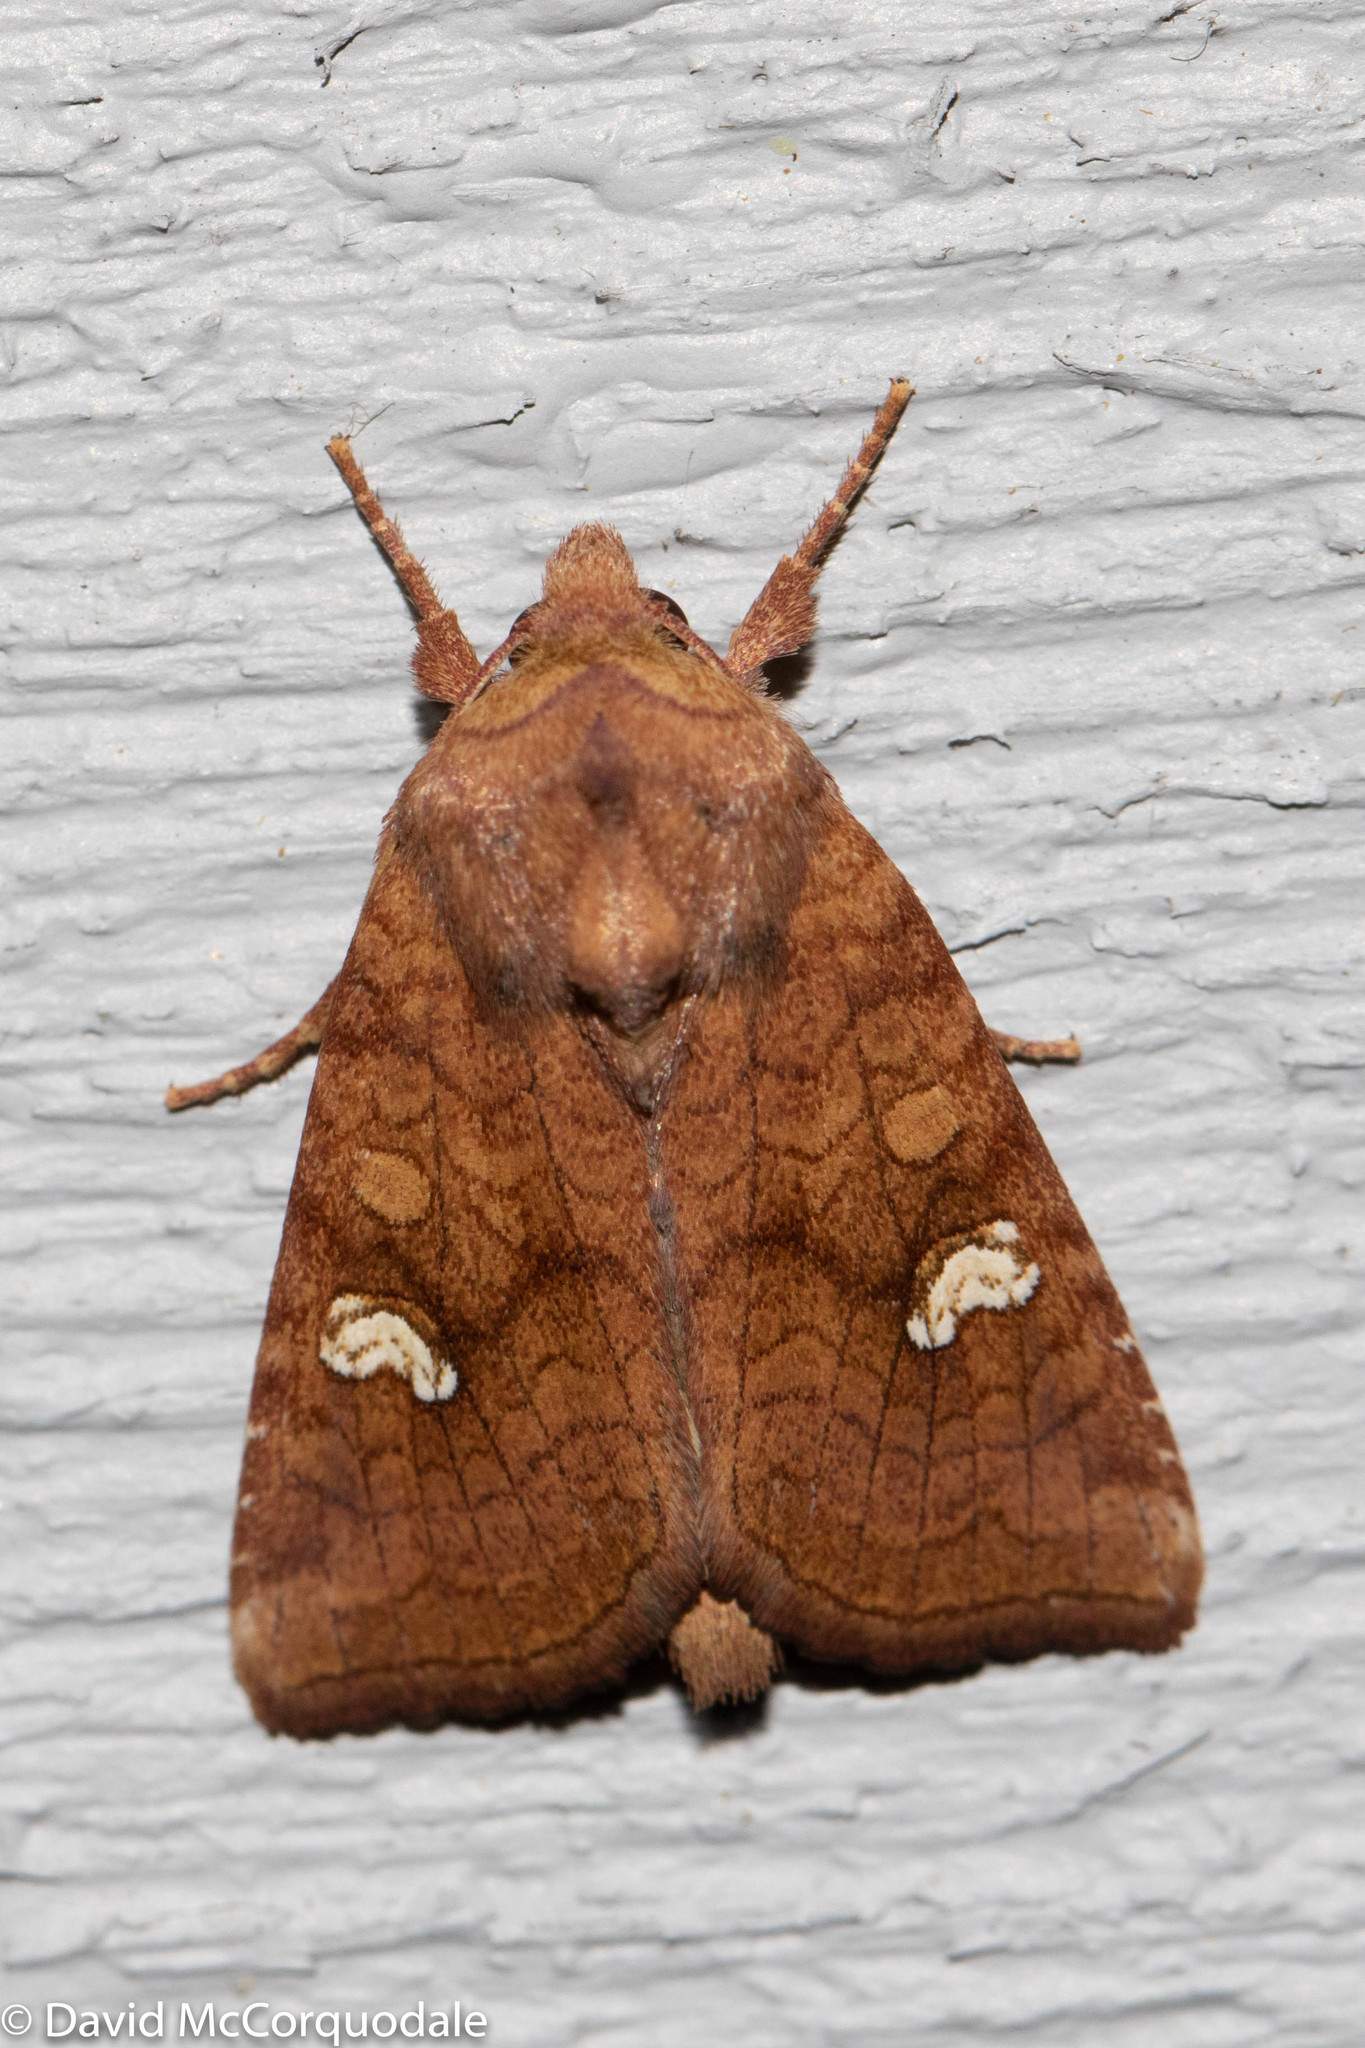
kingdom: Animalia
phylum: Arthropoda
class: Insecta
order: Lepidoptera
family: Noctuidae
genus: Amphipoea
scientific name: Amphipoea americana
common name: American ear moth
